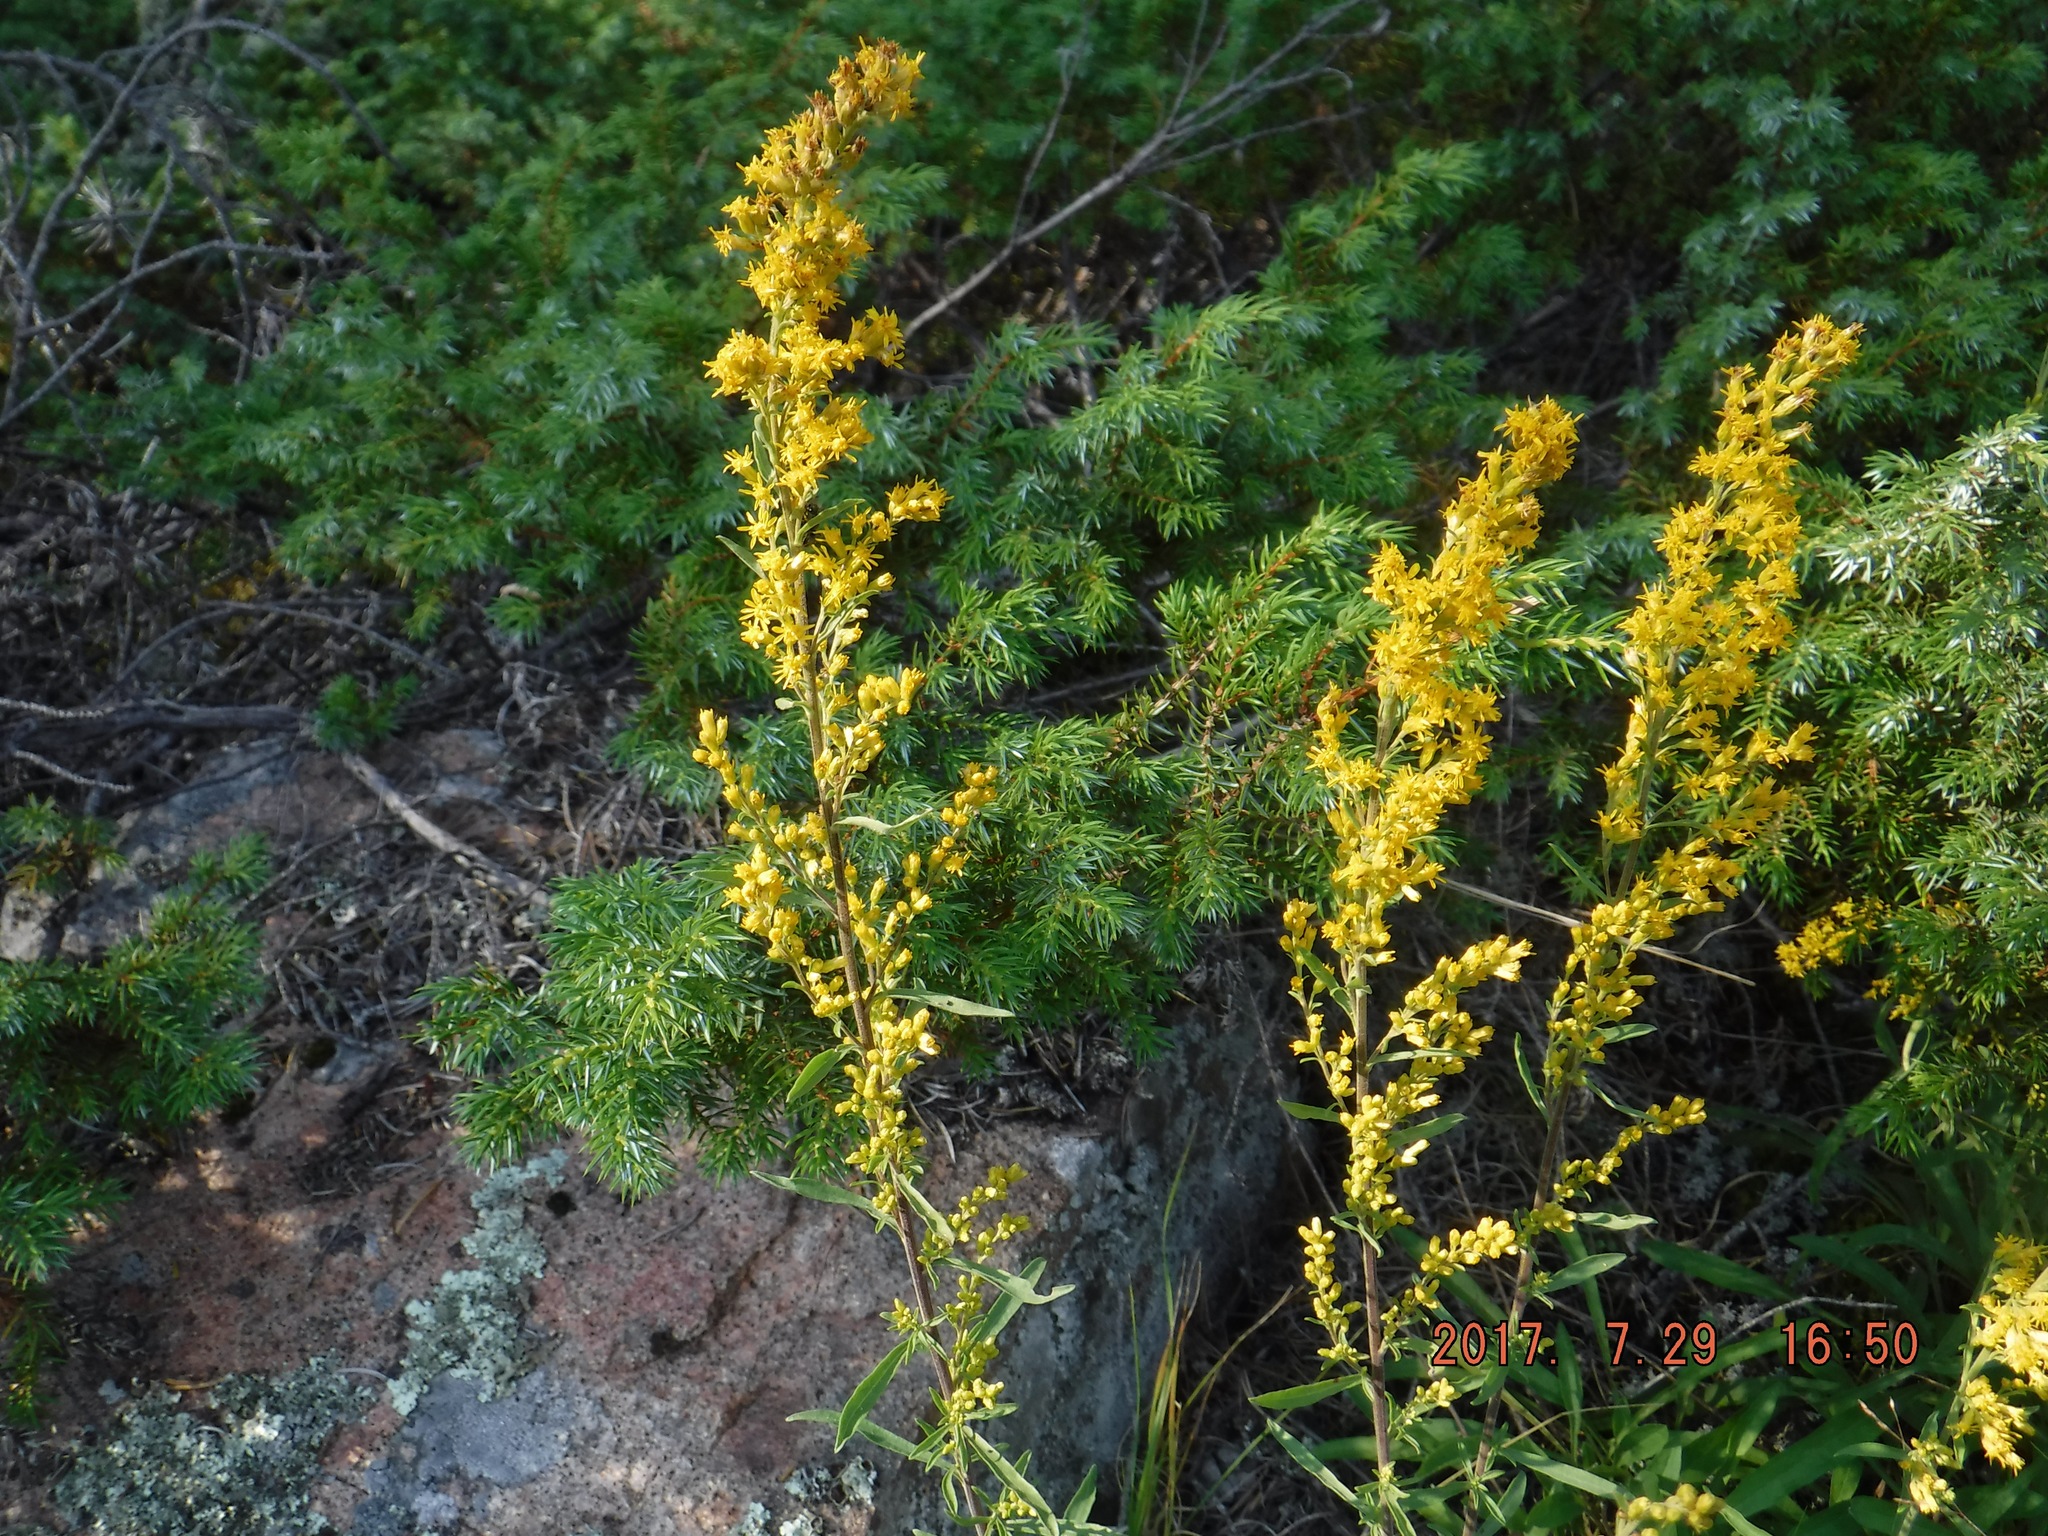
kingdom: Plantae
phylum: Tracheophyta
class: Magnoliopsida
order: Asterales
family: Asteraceae
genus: Solidago
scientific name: Solidago nemoralis
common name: Grey goldenrod
